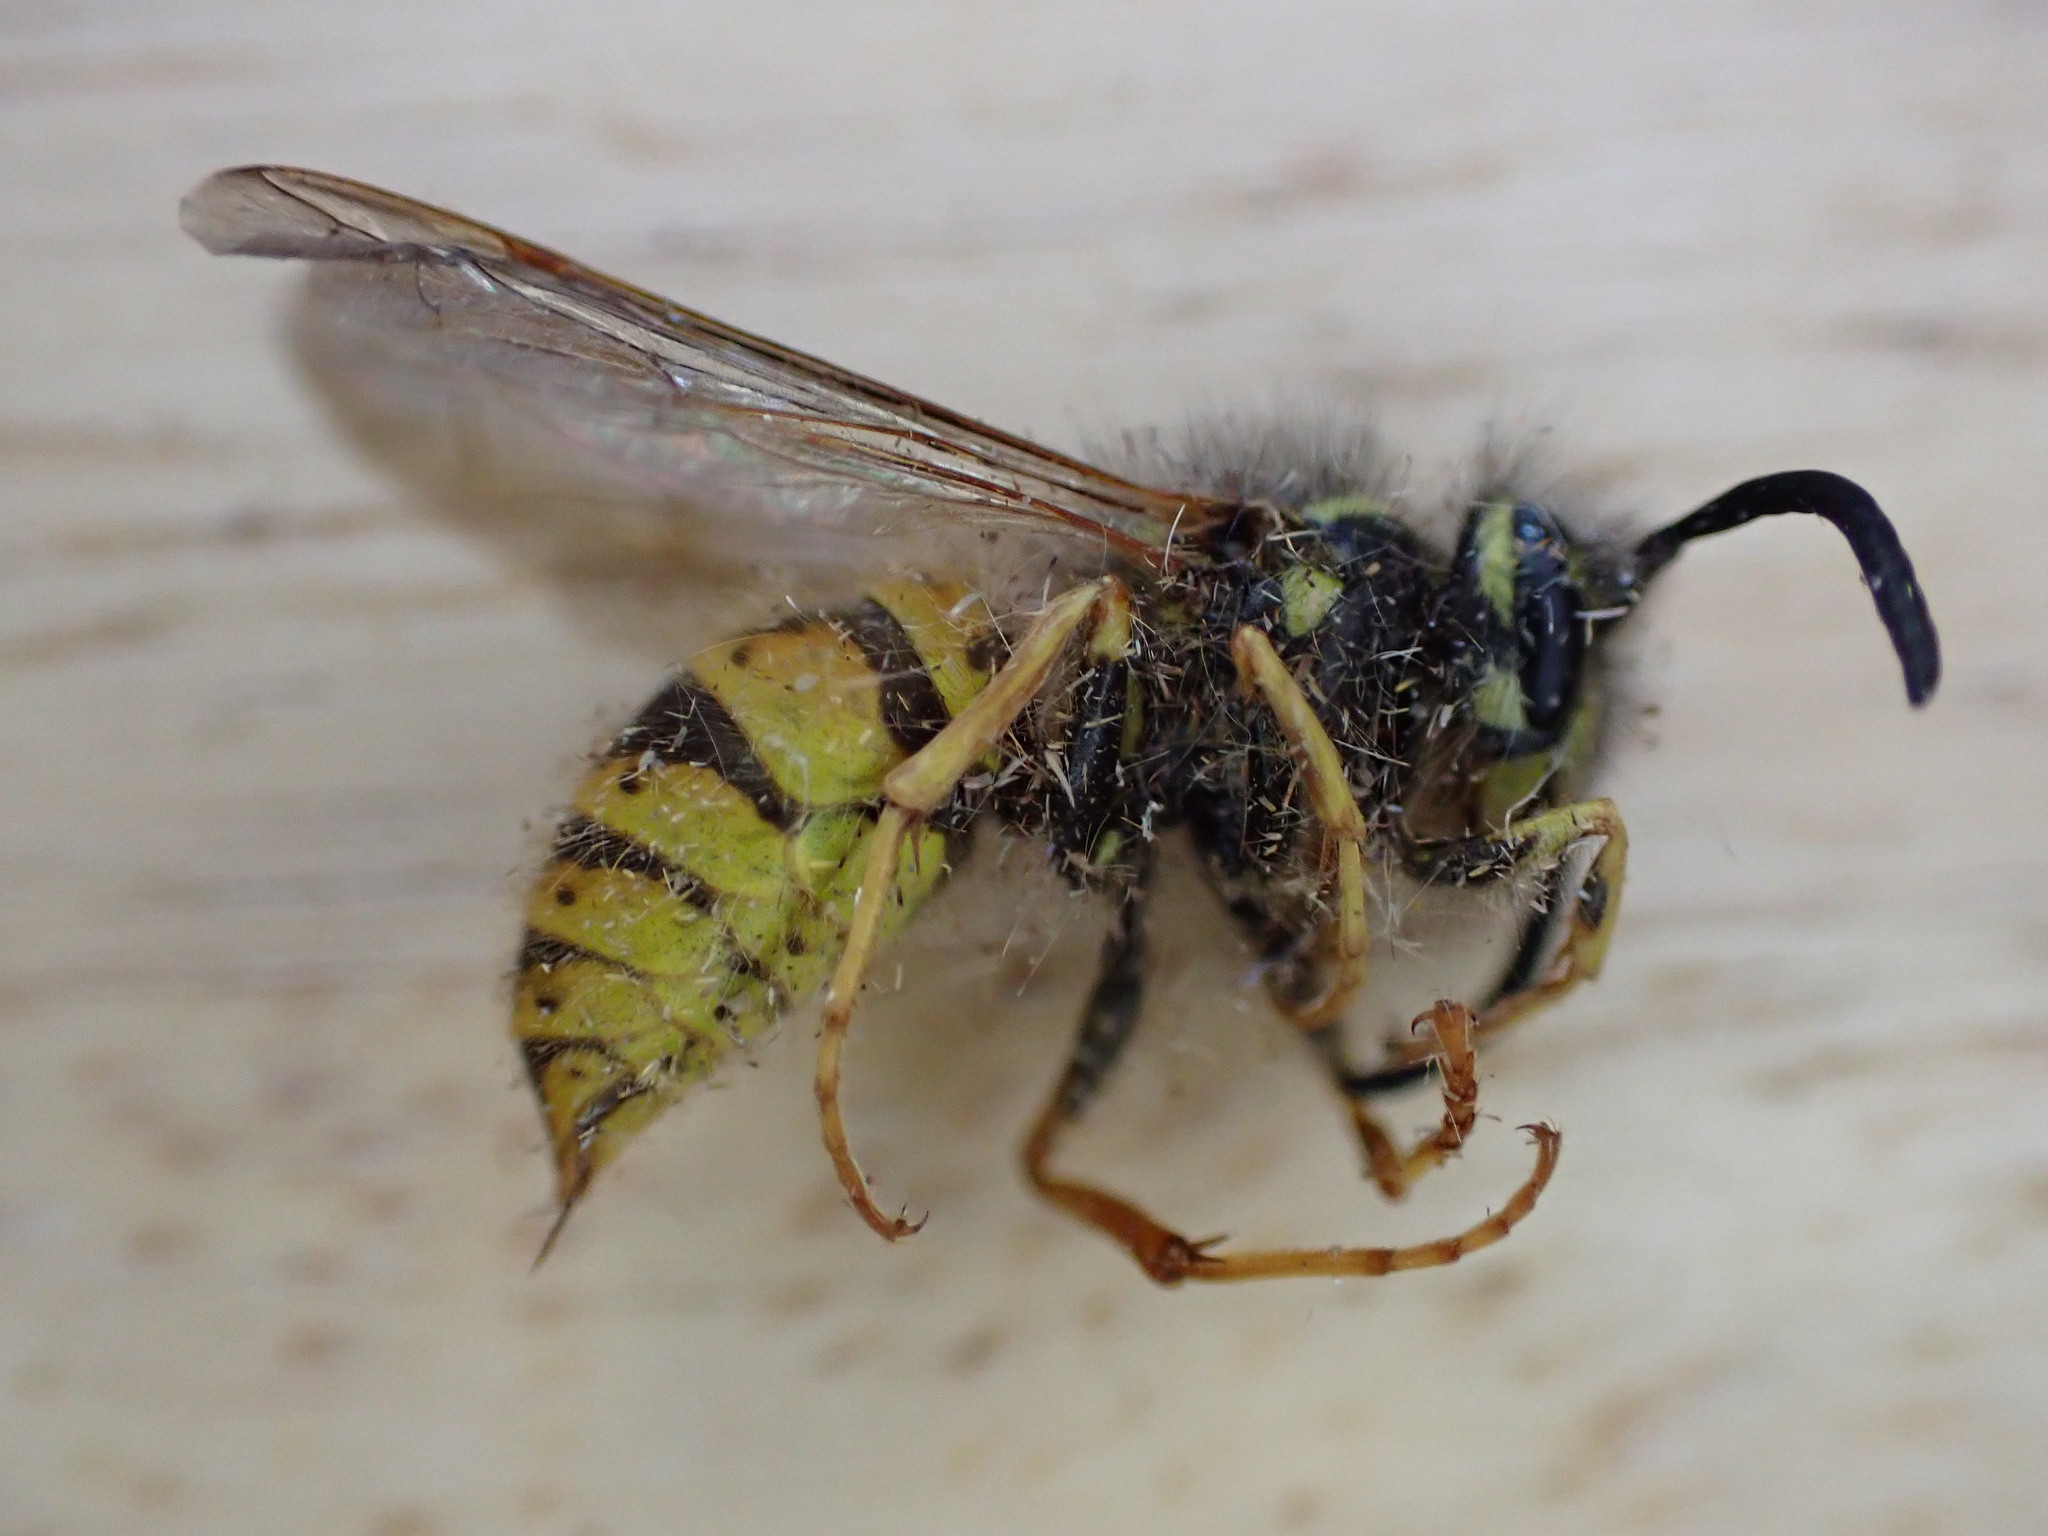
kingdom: Animalia
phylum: Arthropoda
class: Insecta
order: Hymenoptera
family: Vespidae
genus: Vespula
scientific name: Vespula vulgaris
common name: Common wasp
